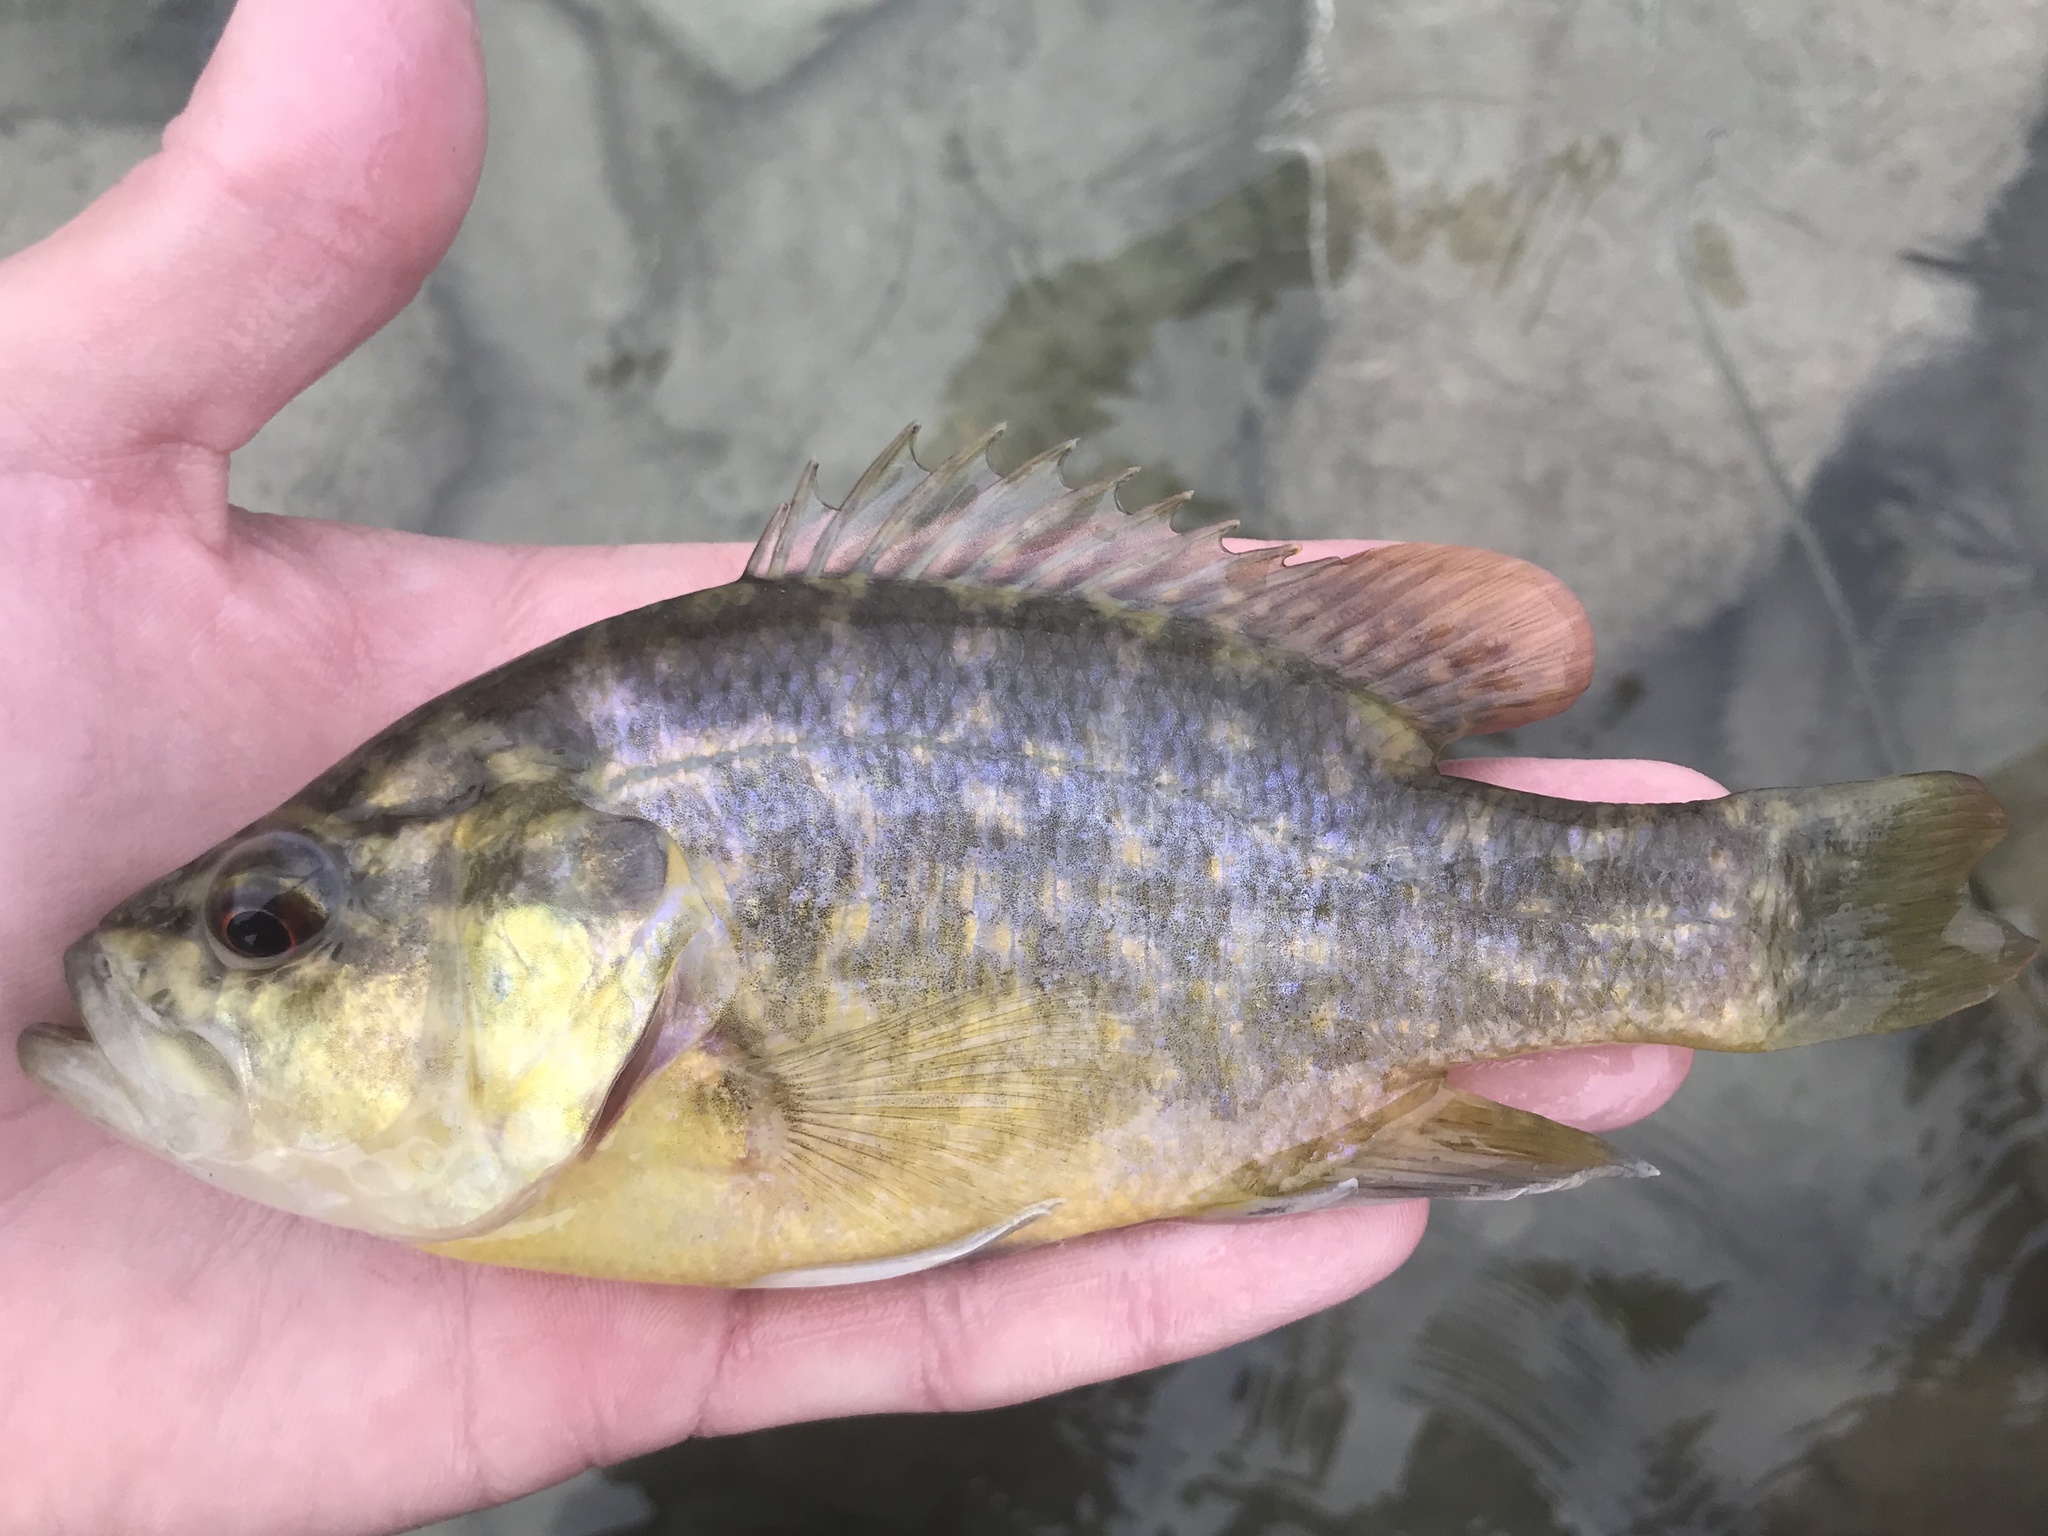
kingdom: Animalia
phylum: Chordata
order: Perciformes
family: Centrarchidae
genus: Lepomis
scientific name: Lepomis gulosus
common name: Warmouth
